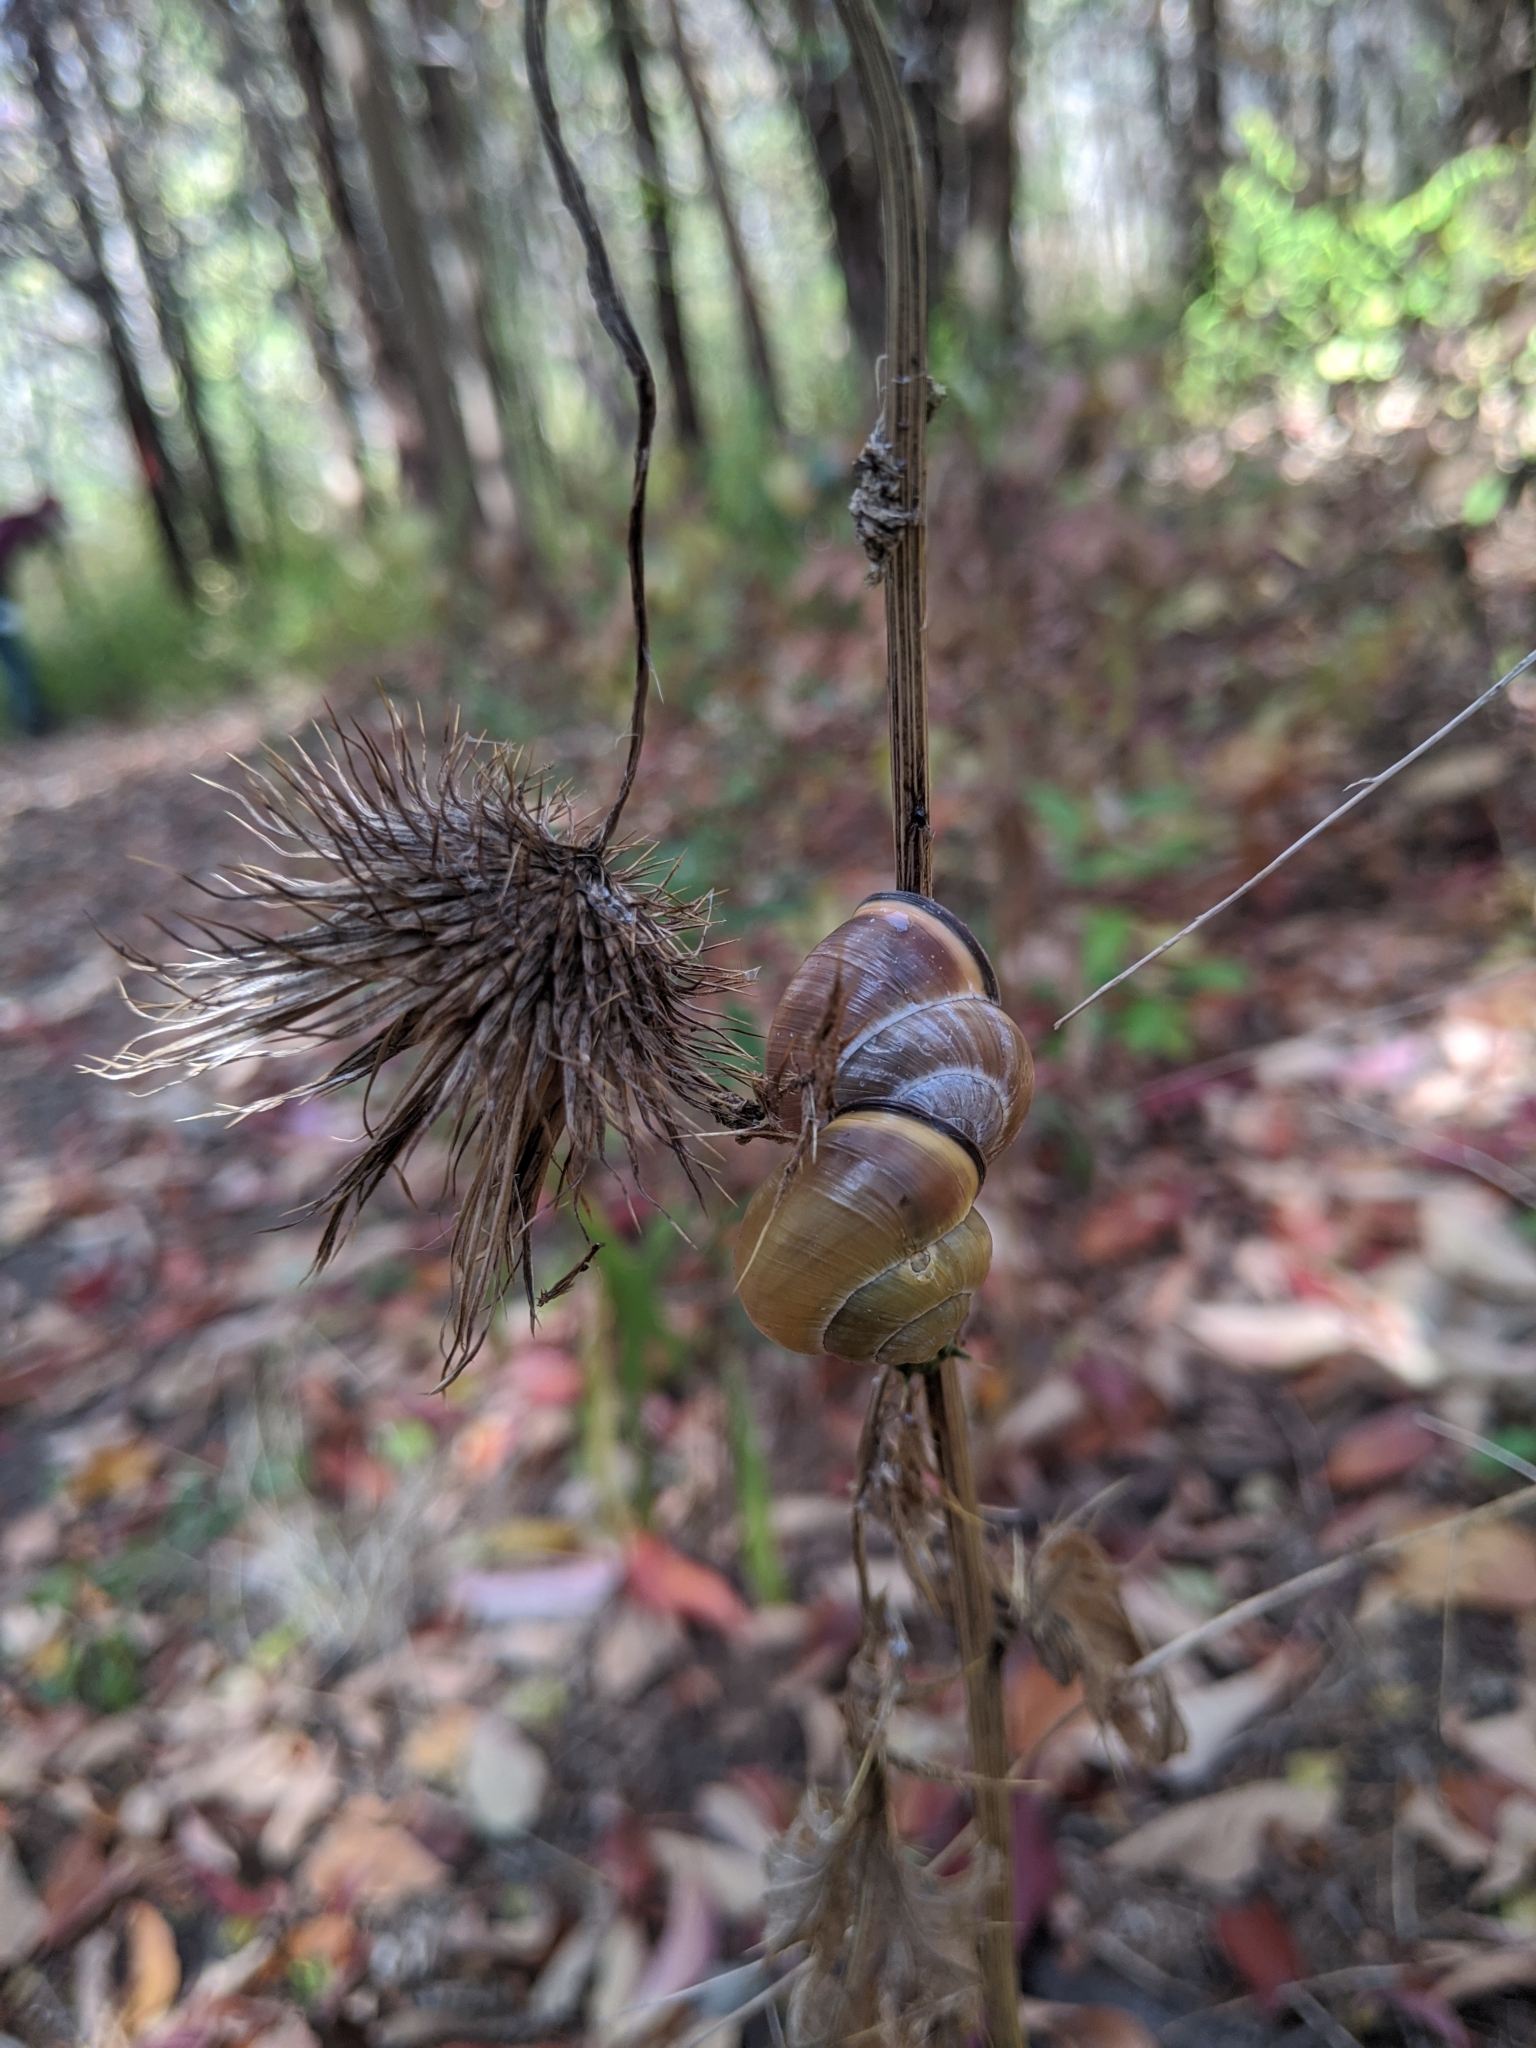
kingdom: Animalia
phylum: Mollusca
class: Gastropoda
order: Stylommatophora
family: Helicidae
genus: Cepaea
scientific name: Cepaea nemoralis
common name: Grovesnail
